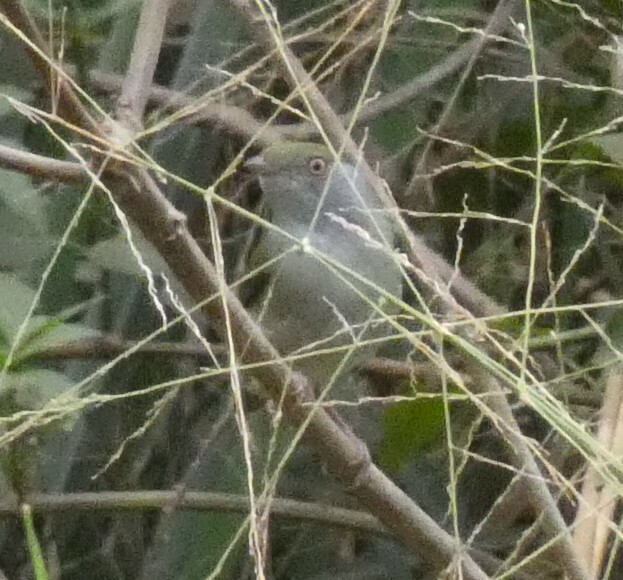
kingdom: Animalia
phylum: Chordata
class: Aves
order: Passeriformes
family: Pipridae
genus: Ilicura
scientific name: Ilicura militaris
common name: Pin-tailed manakin
